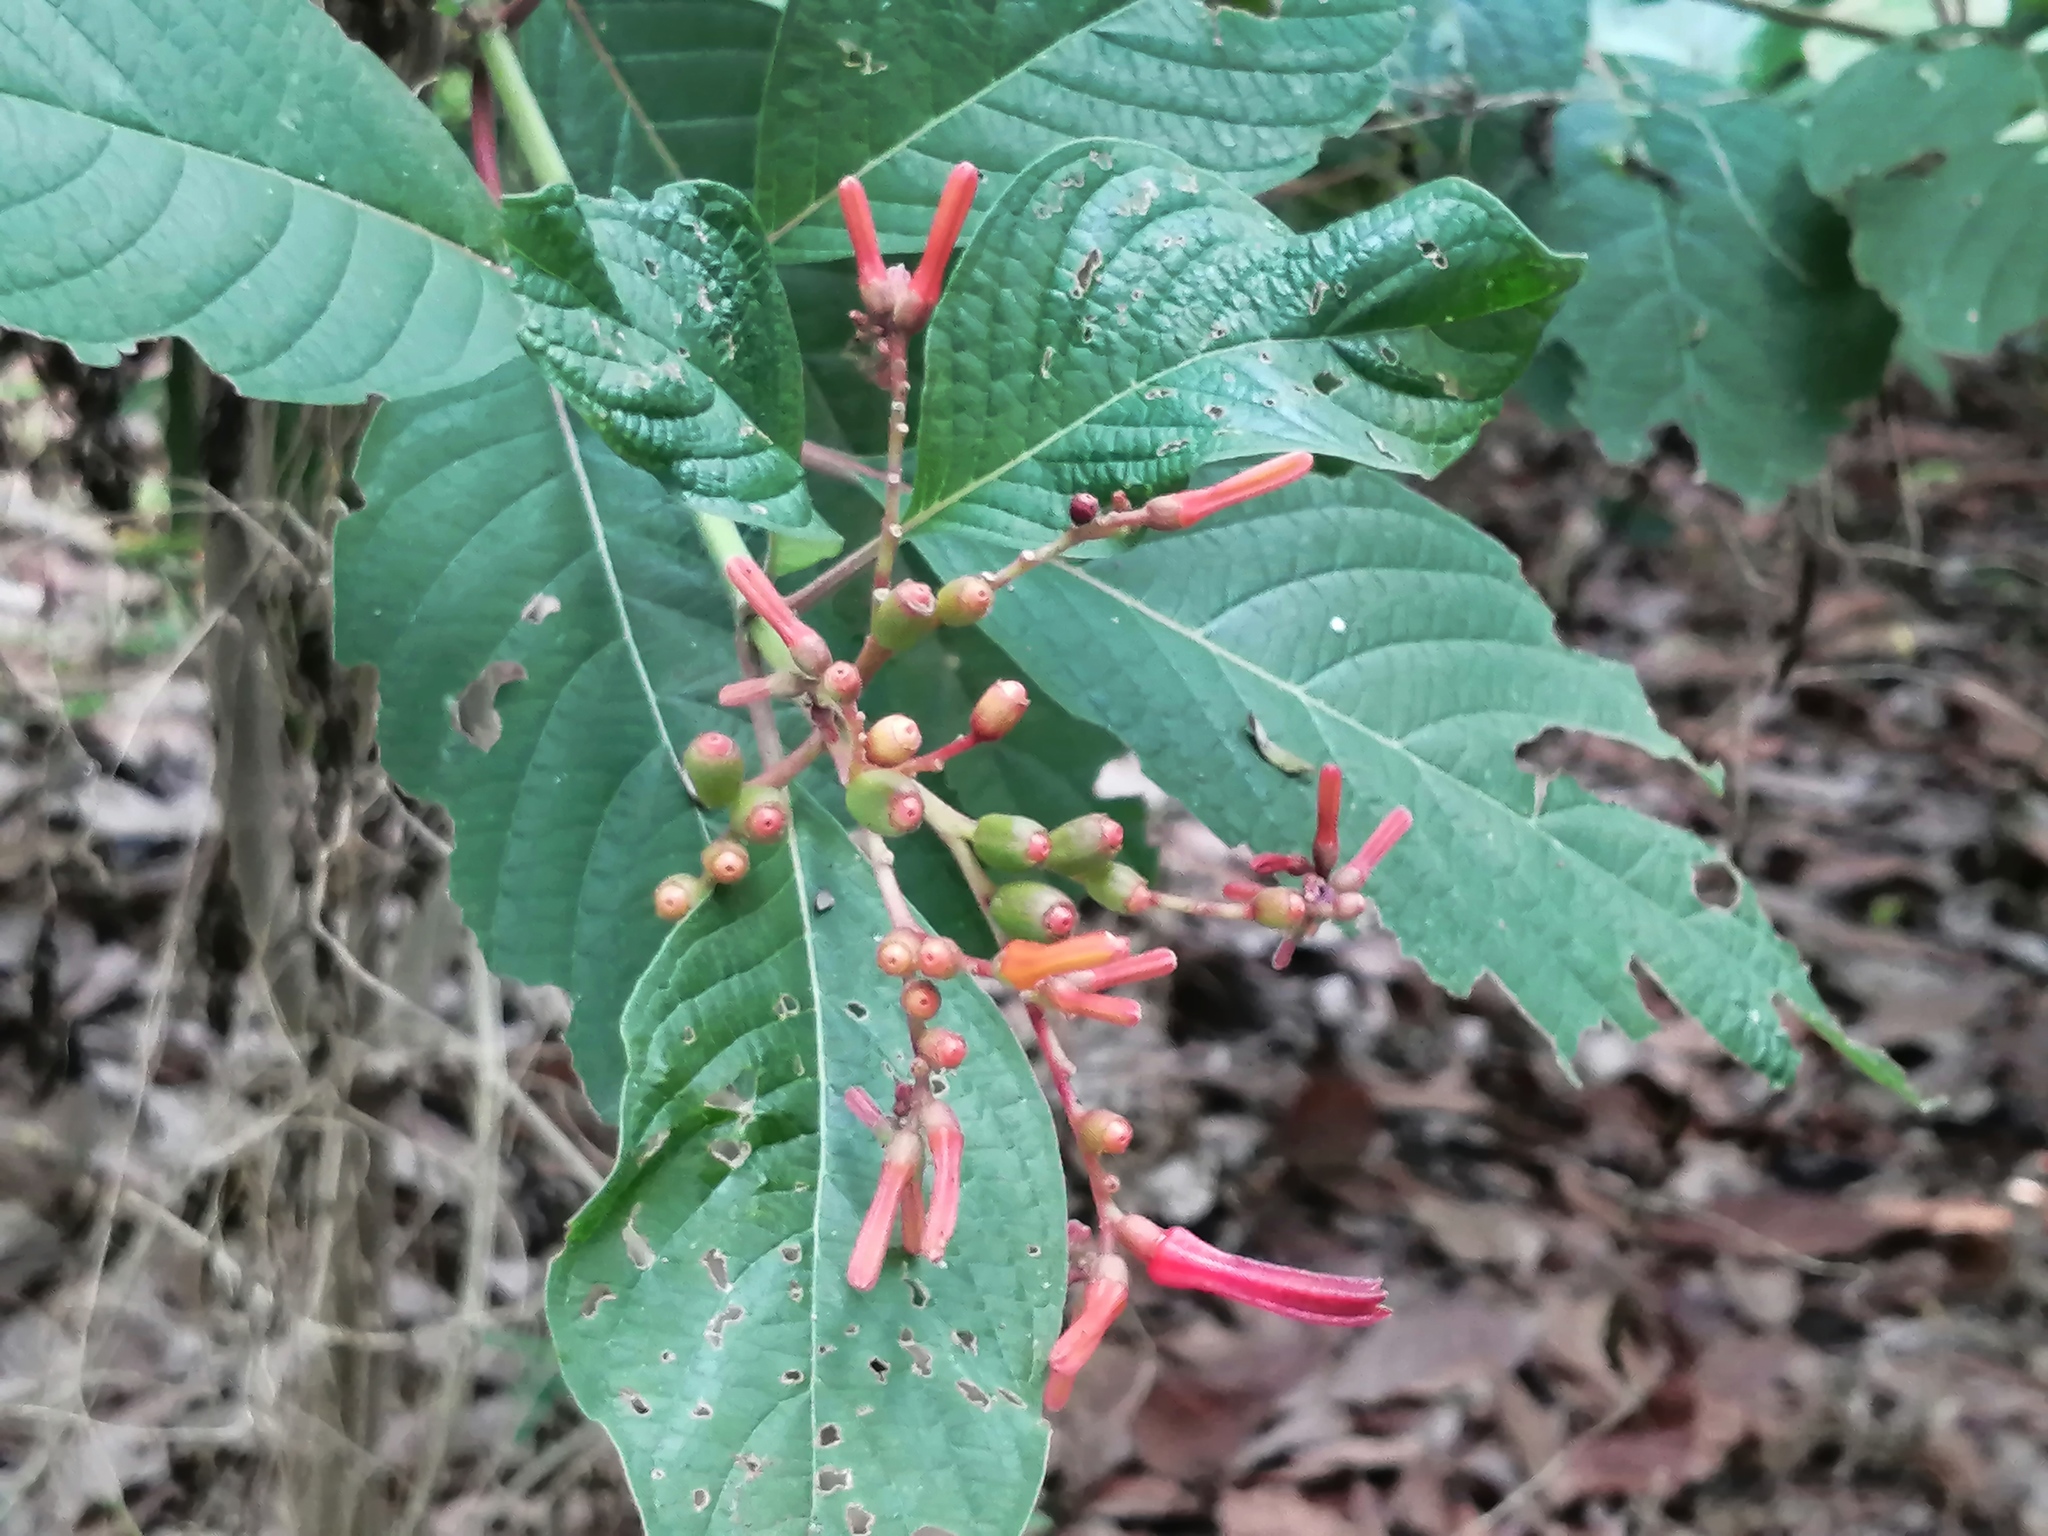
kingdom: Plantae
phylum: Tracheophyta
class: Magnoliopsida
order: Gentianales
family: Rubiaceae
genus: Hamelia
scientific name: Hamelia patens
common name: Redhead
